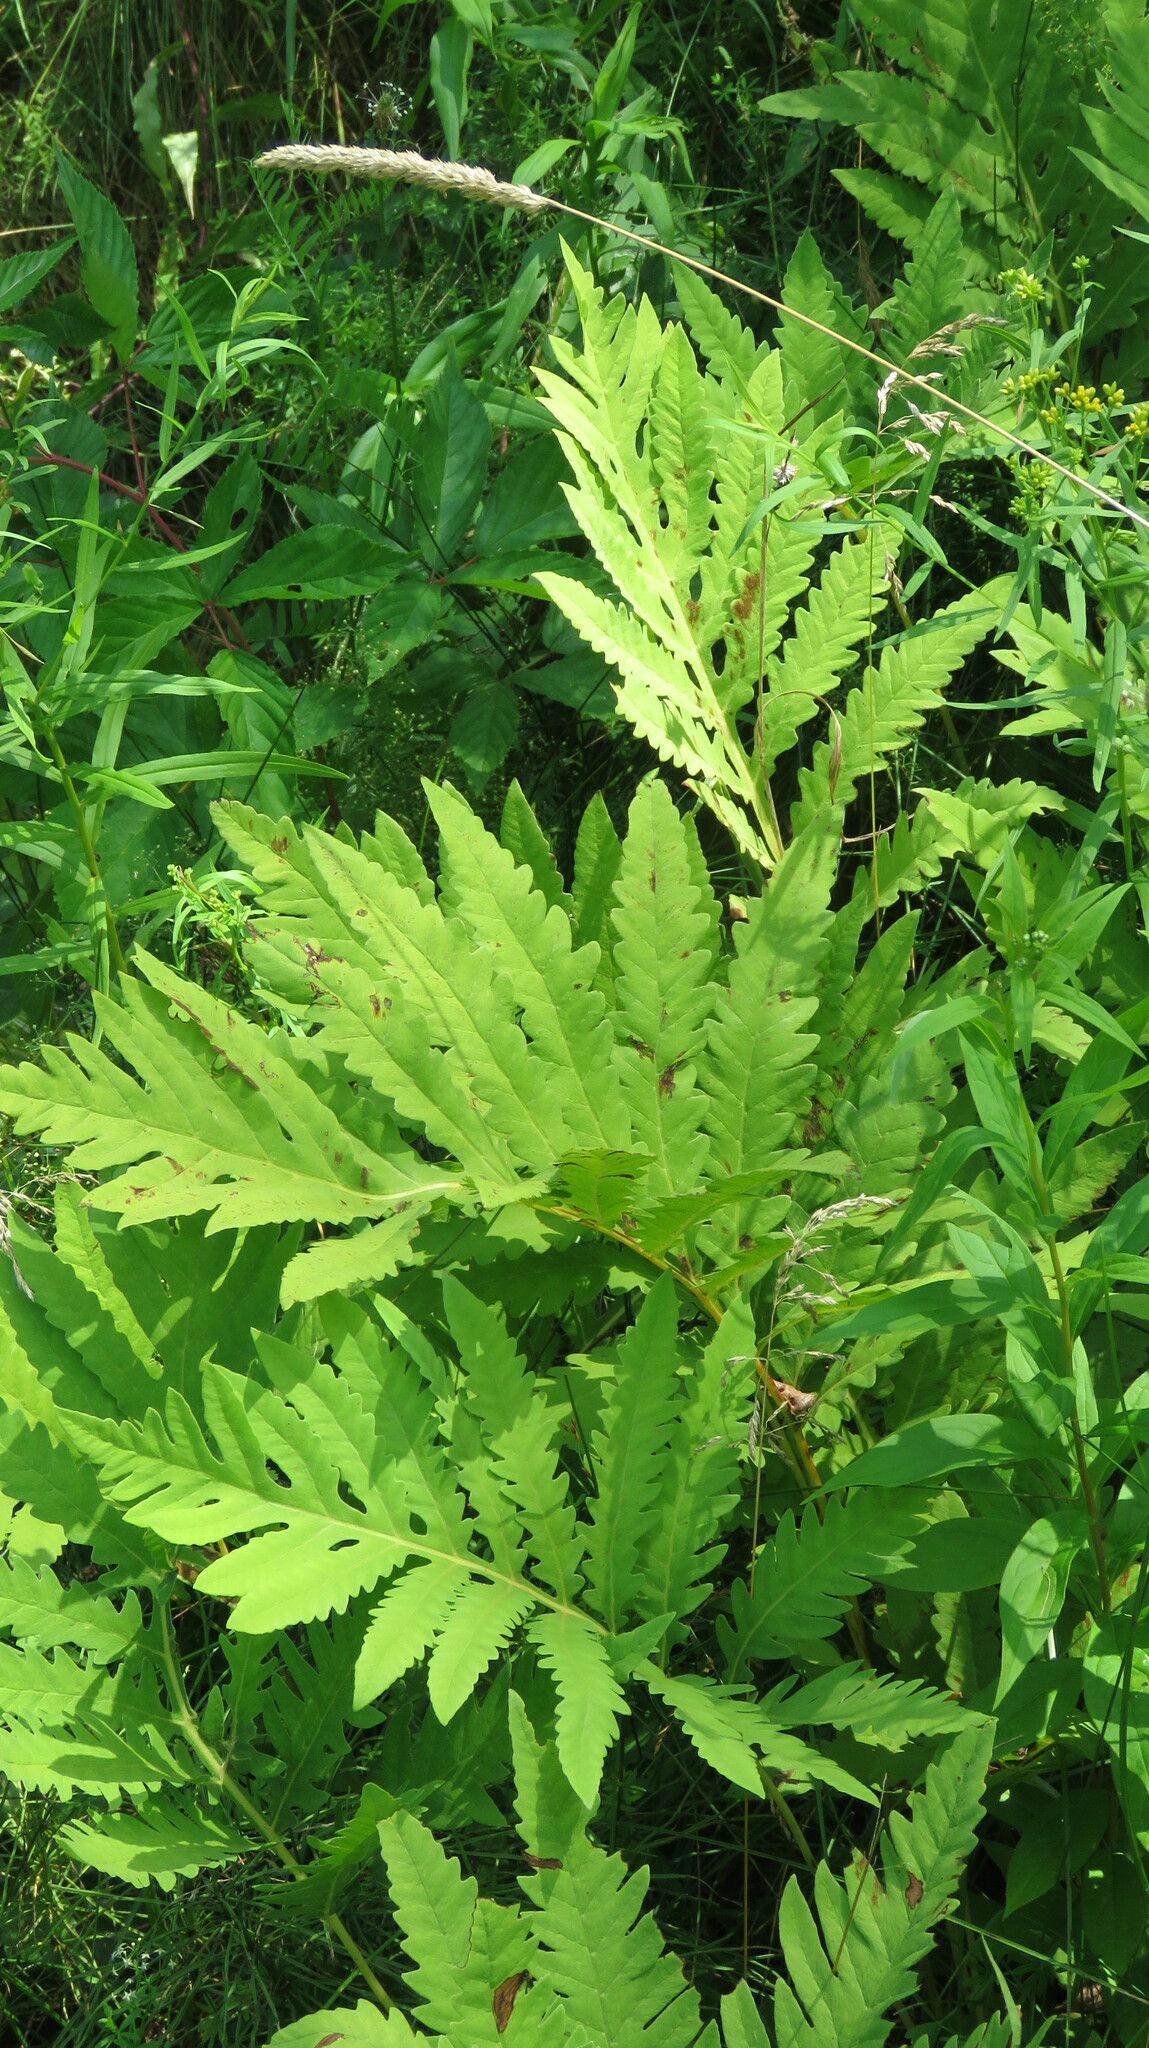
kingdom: Plantae
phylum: Tracheophyta
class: Polypodiopsida
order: Polypodiales
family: Onocleaceae
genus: Onoclea
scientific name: Onoclea sensibilis
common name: Sensitive fern
